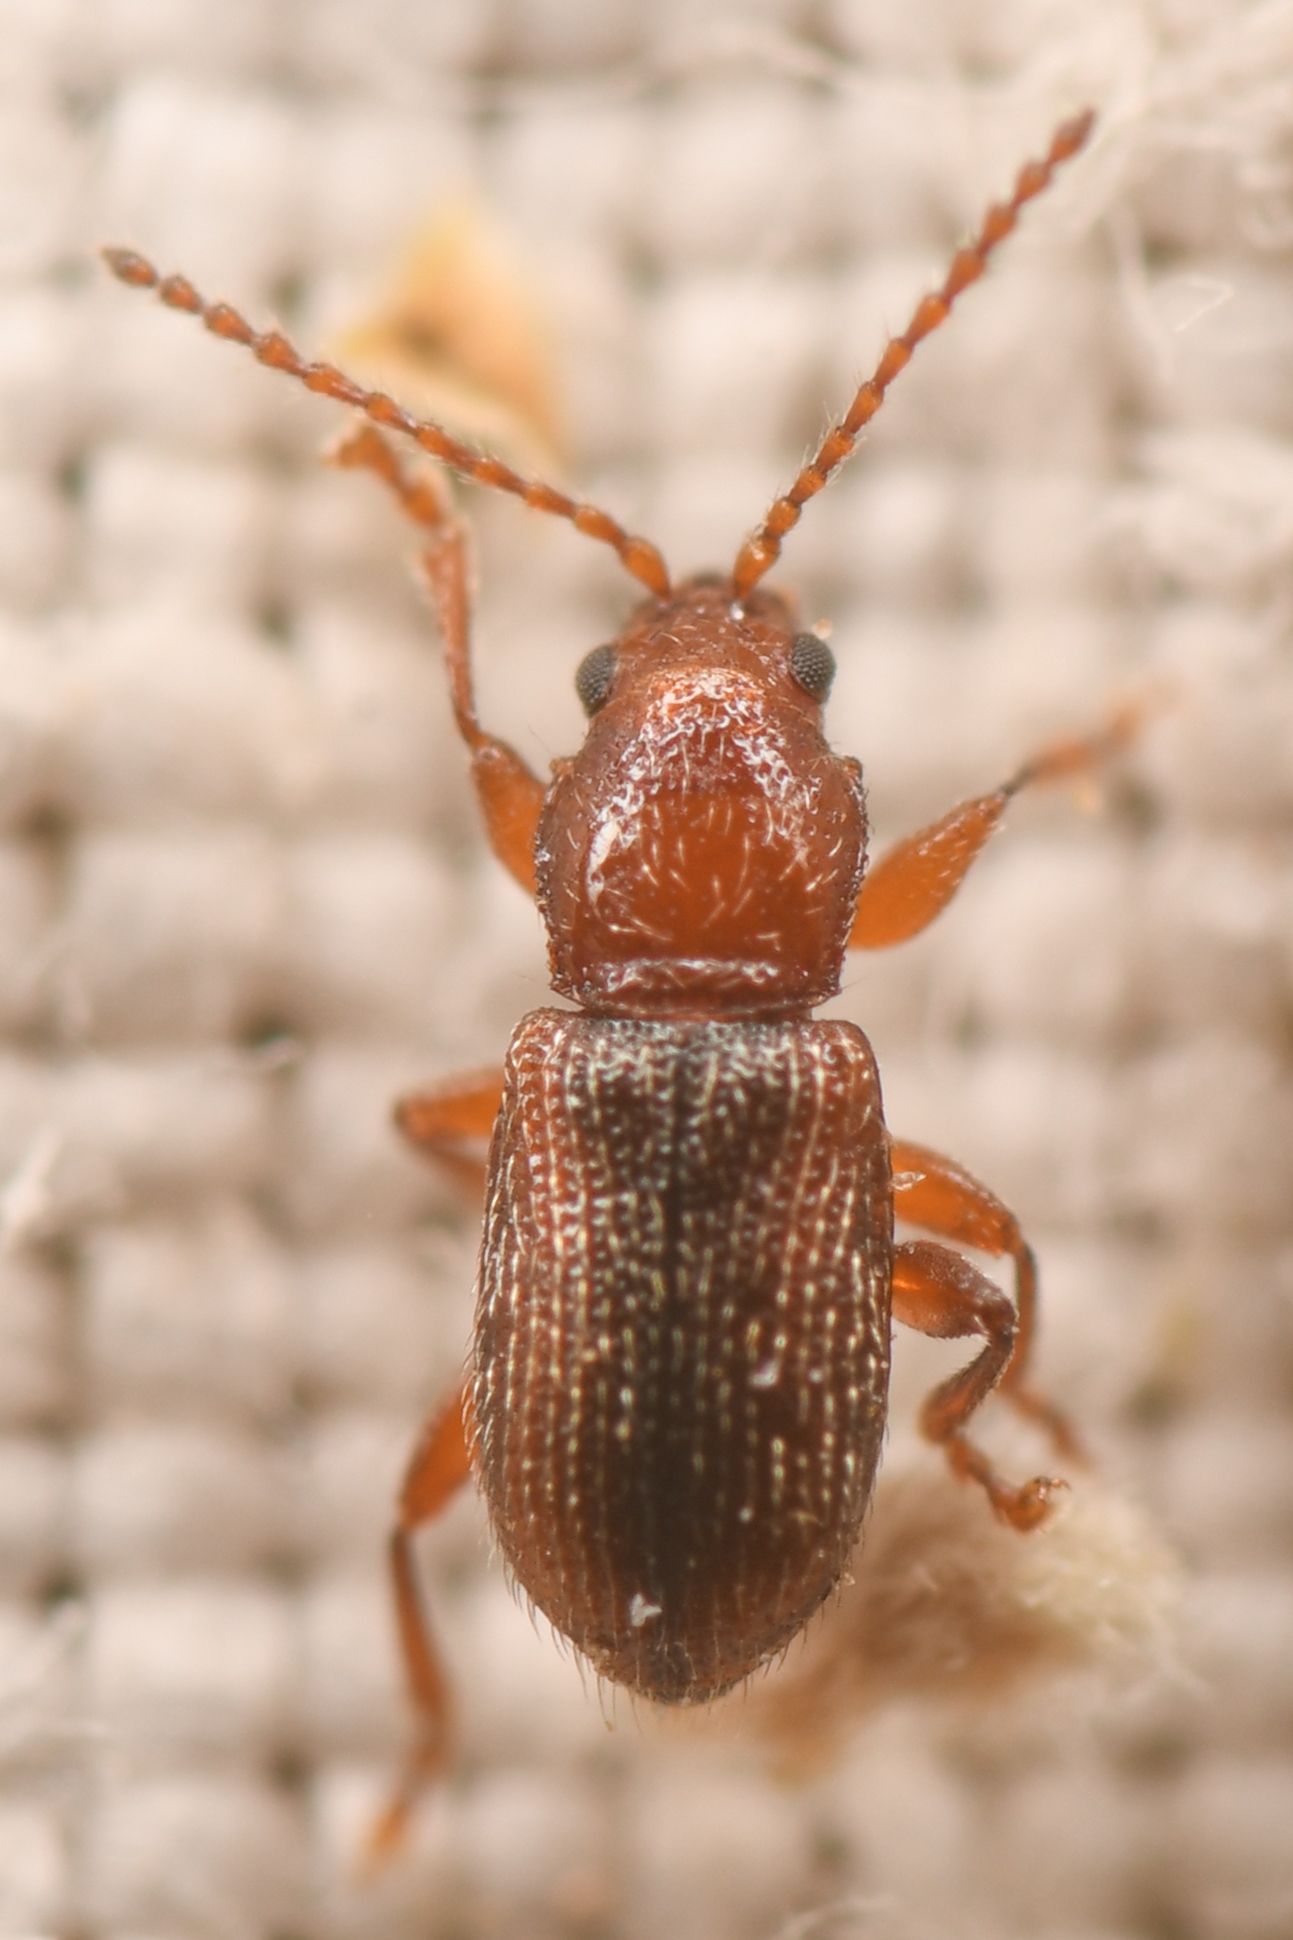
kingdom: Animalia
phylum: Arthropoda
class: Insecta
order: Coleoptera
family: Chrysomelidae
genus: Aulacothorax
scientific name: Aulacothorax
